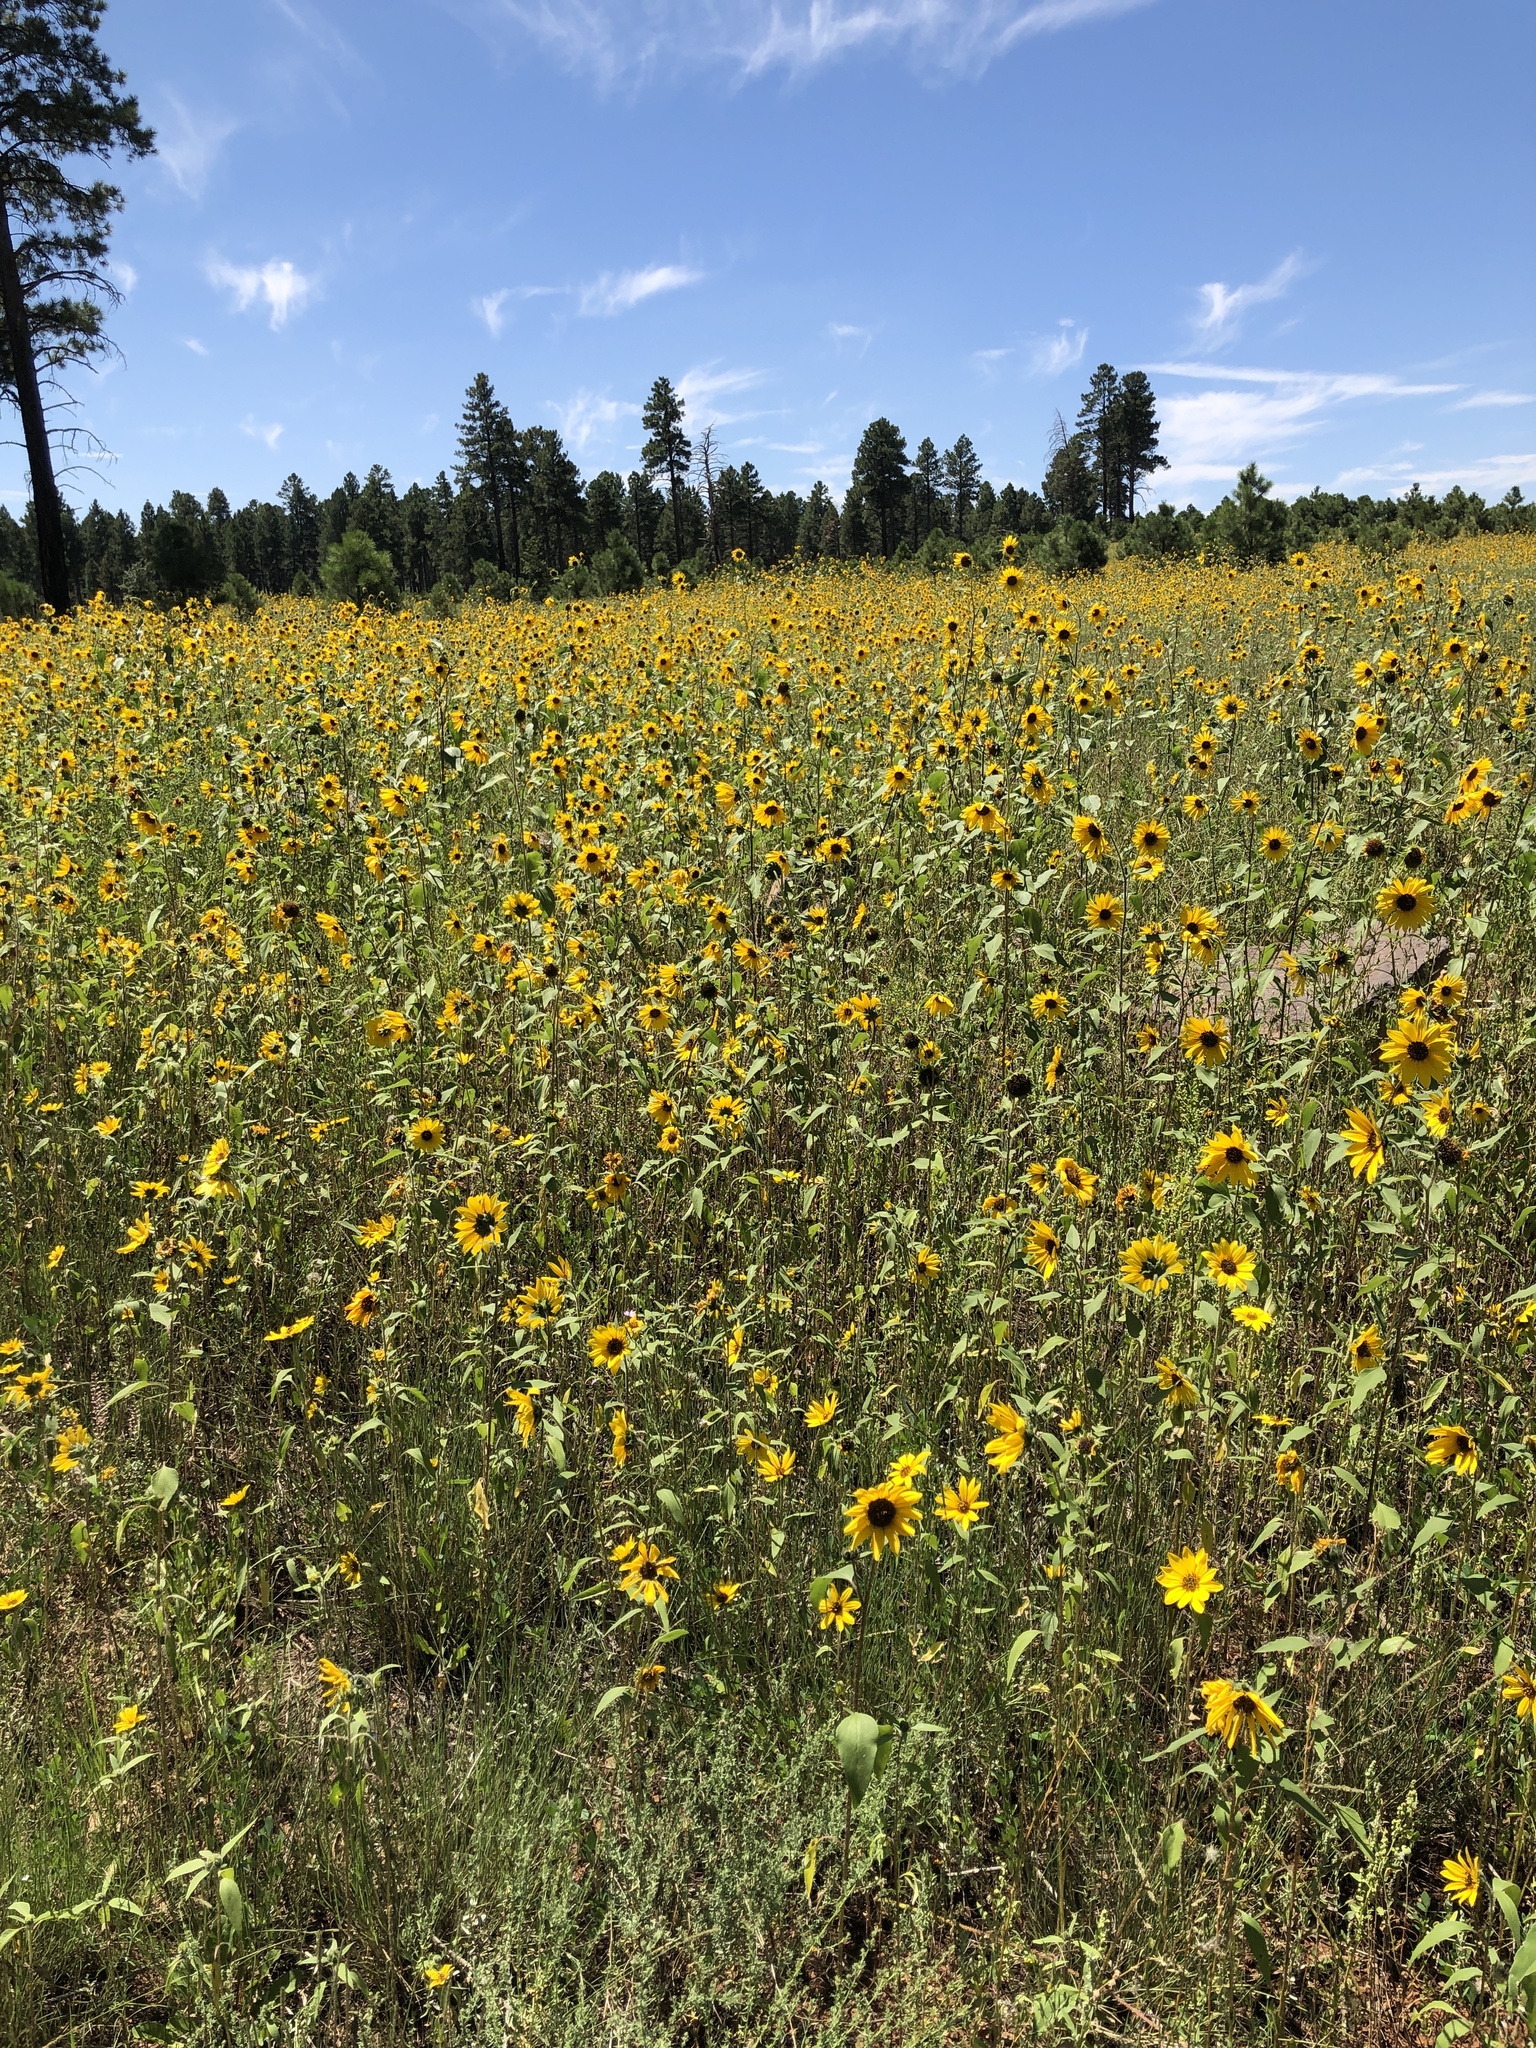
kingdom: Plantae
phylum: Tracheophyta
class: Magnoliopsida
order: Asterales
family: Asteraceae
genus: Helianthus
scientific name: Helianthus petiolaris
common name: Lesser sunflower
